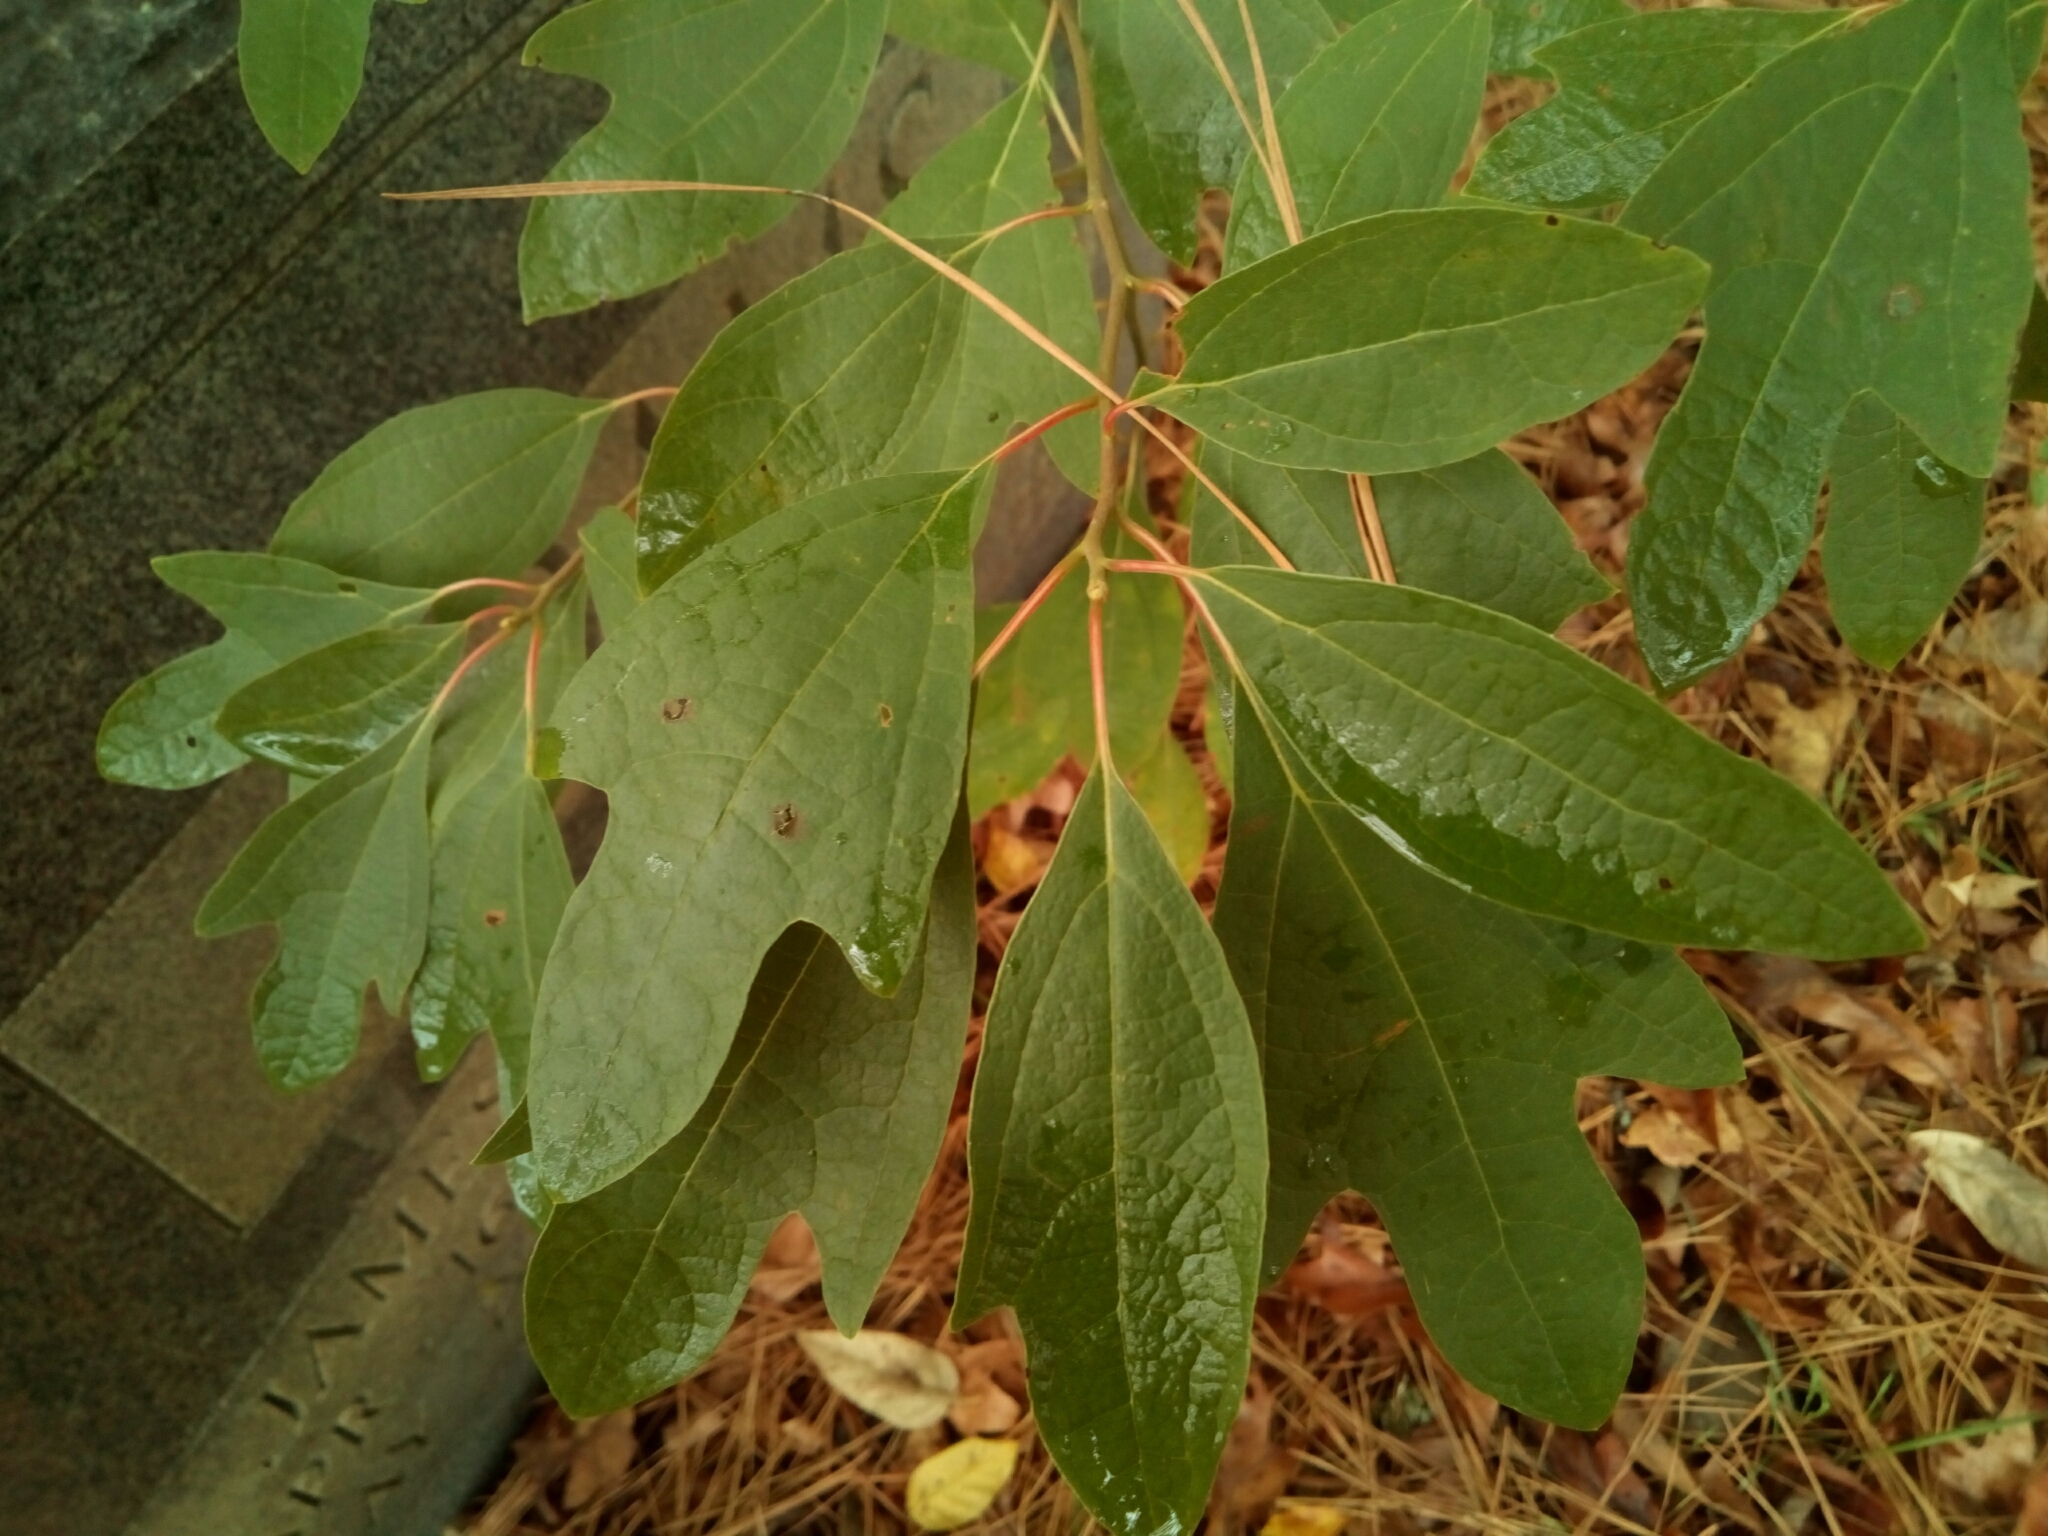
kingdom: Plantae
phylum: Tracheophyta
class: Magnoliopsida
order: Laurales
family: Lauraceae
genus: Sassafras
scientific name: Sassafras albidum
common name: Sassafras
